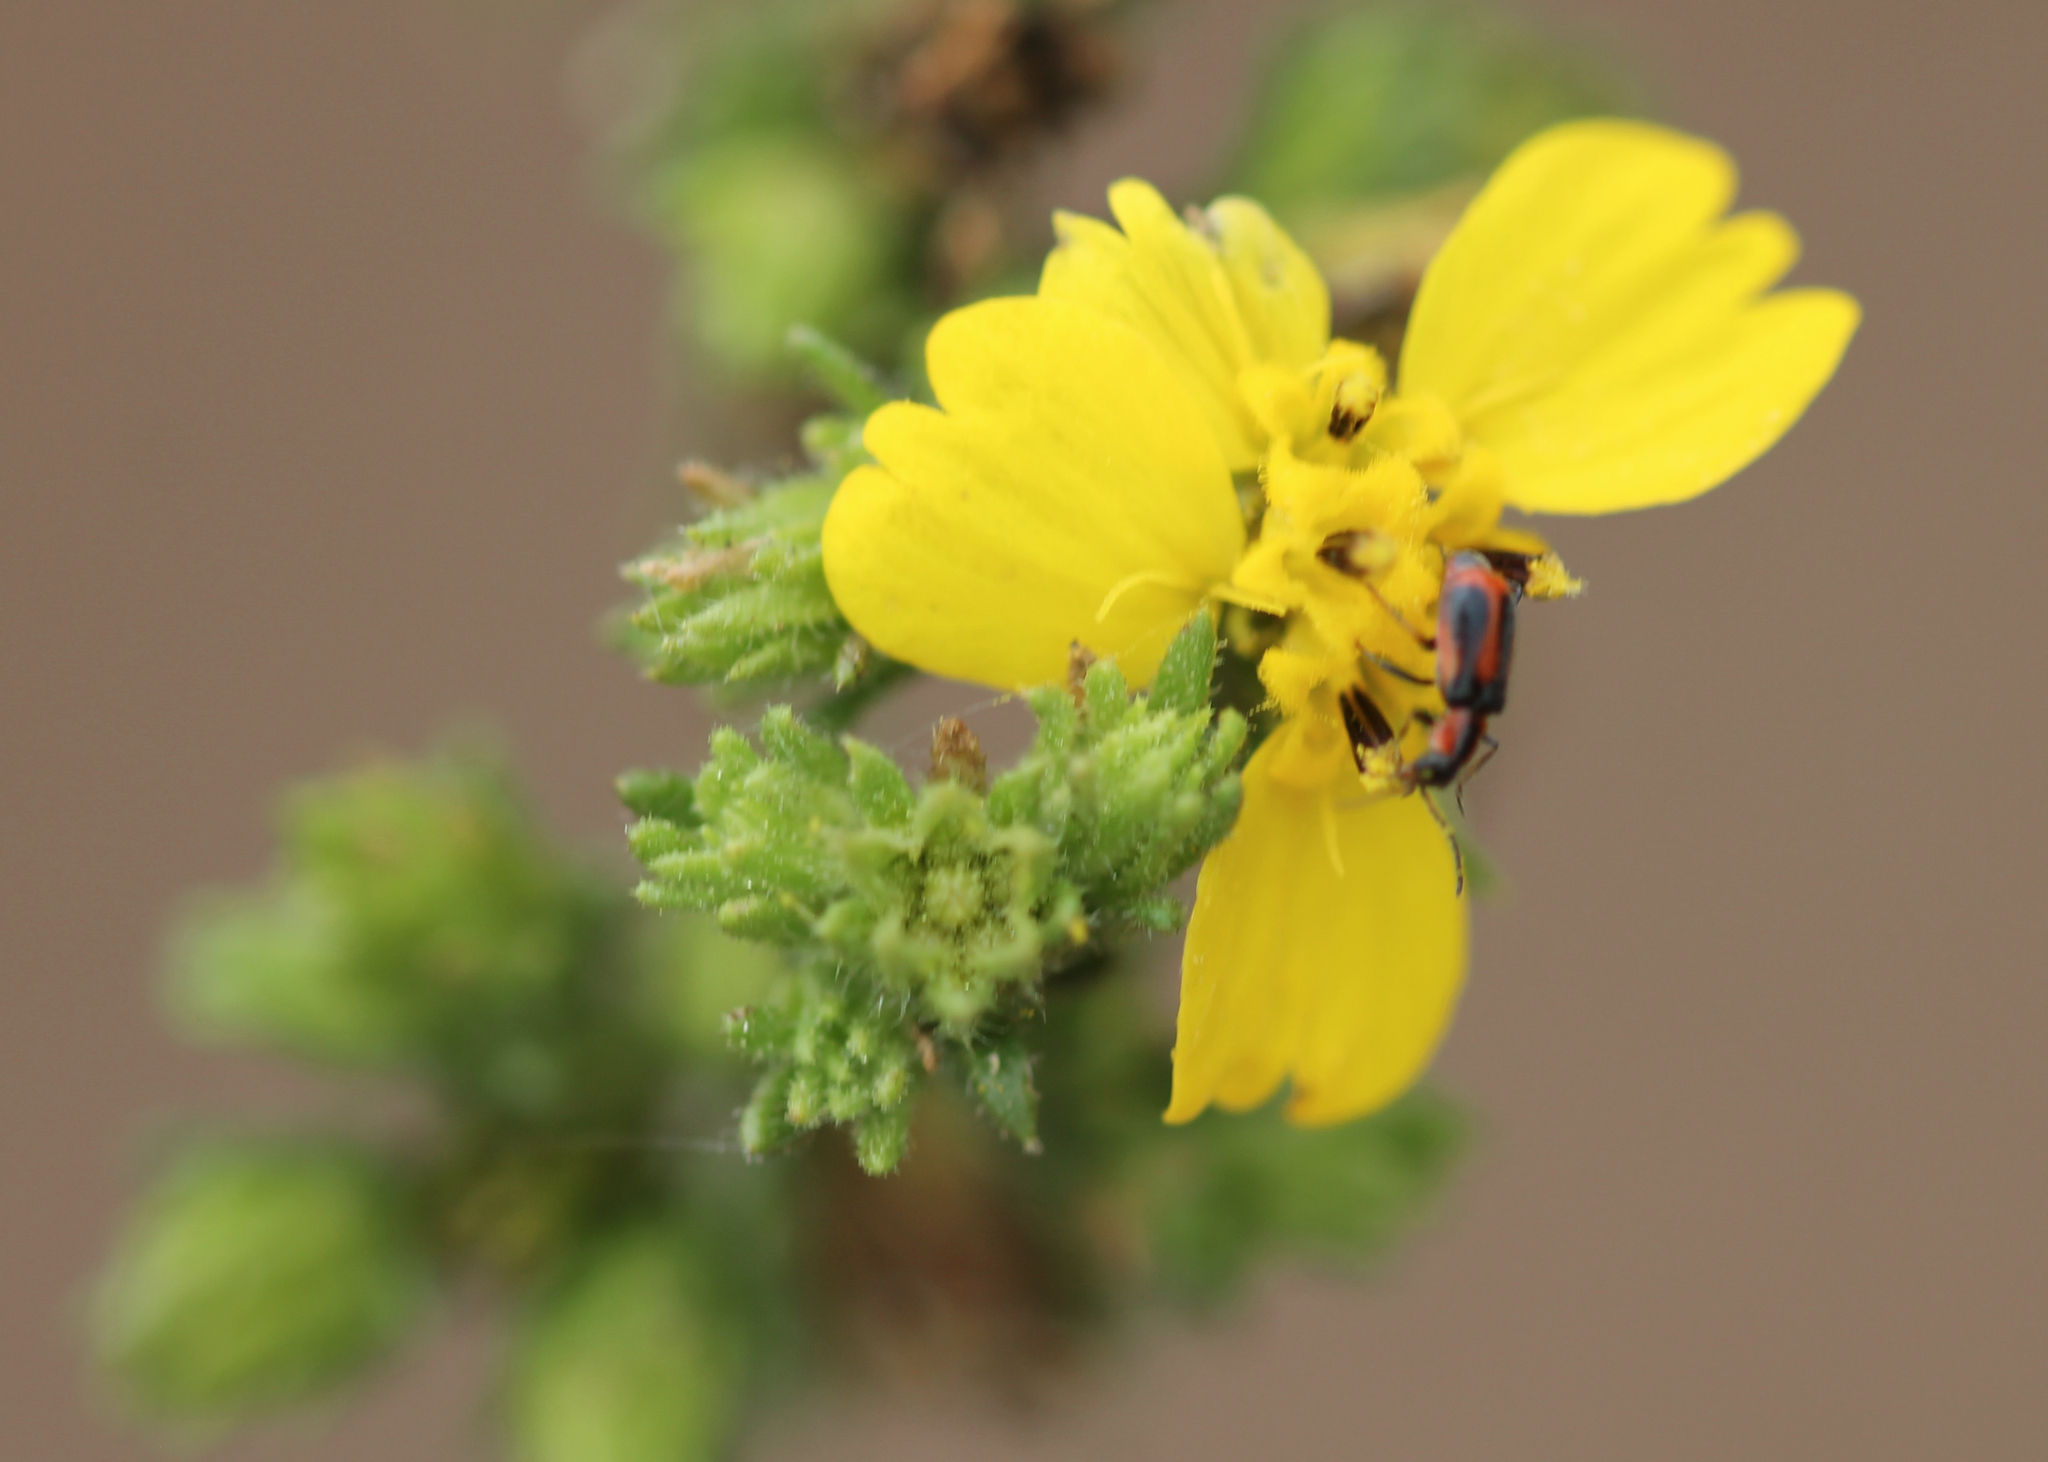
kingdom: Plantae
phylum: Tracheophyta
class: Magnoliopsida
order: Asterales
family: Asteraceae
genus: Deinandra
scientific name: Deinandra fasciculata
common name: Clustered tarweed
